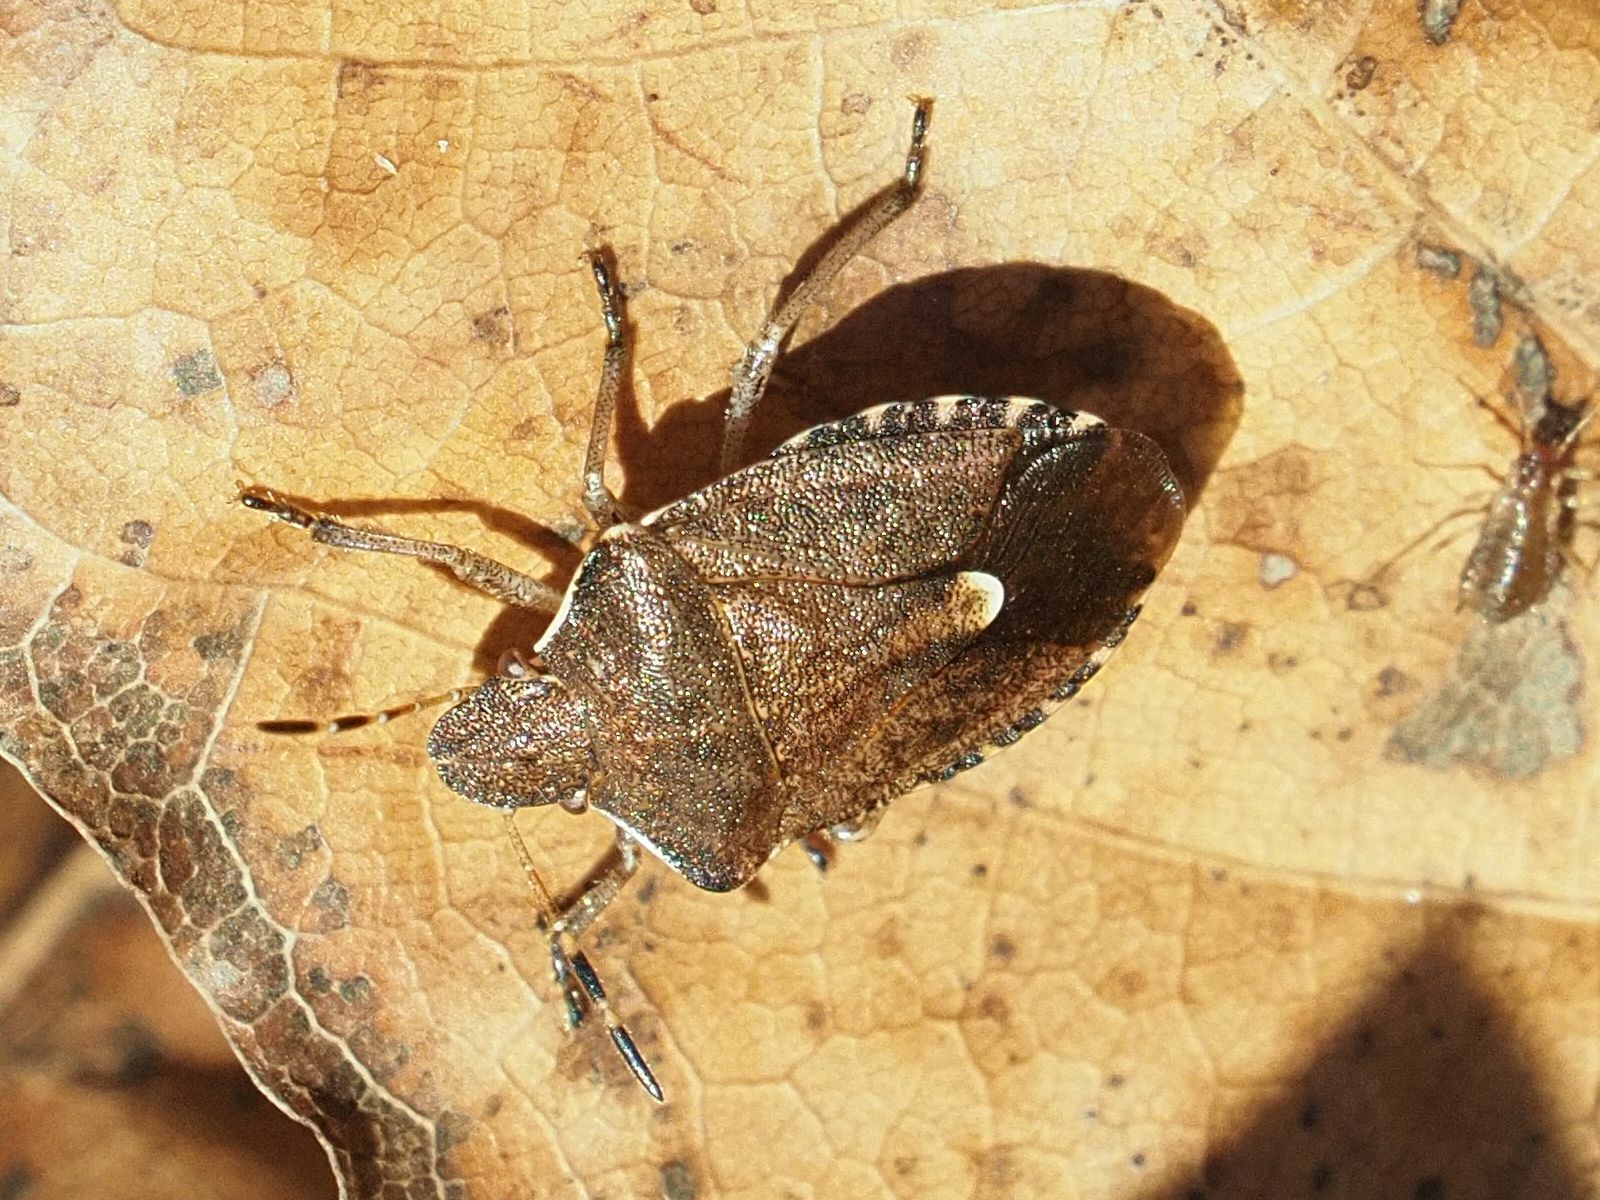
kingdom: Animalia
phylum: Arthropoda
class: Insecta
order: Hemiptera
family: Pentatomidae
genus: Holcostethus
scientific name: Holcostethus strictus
